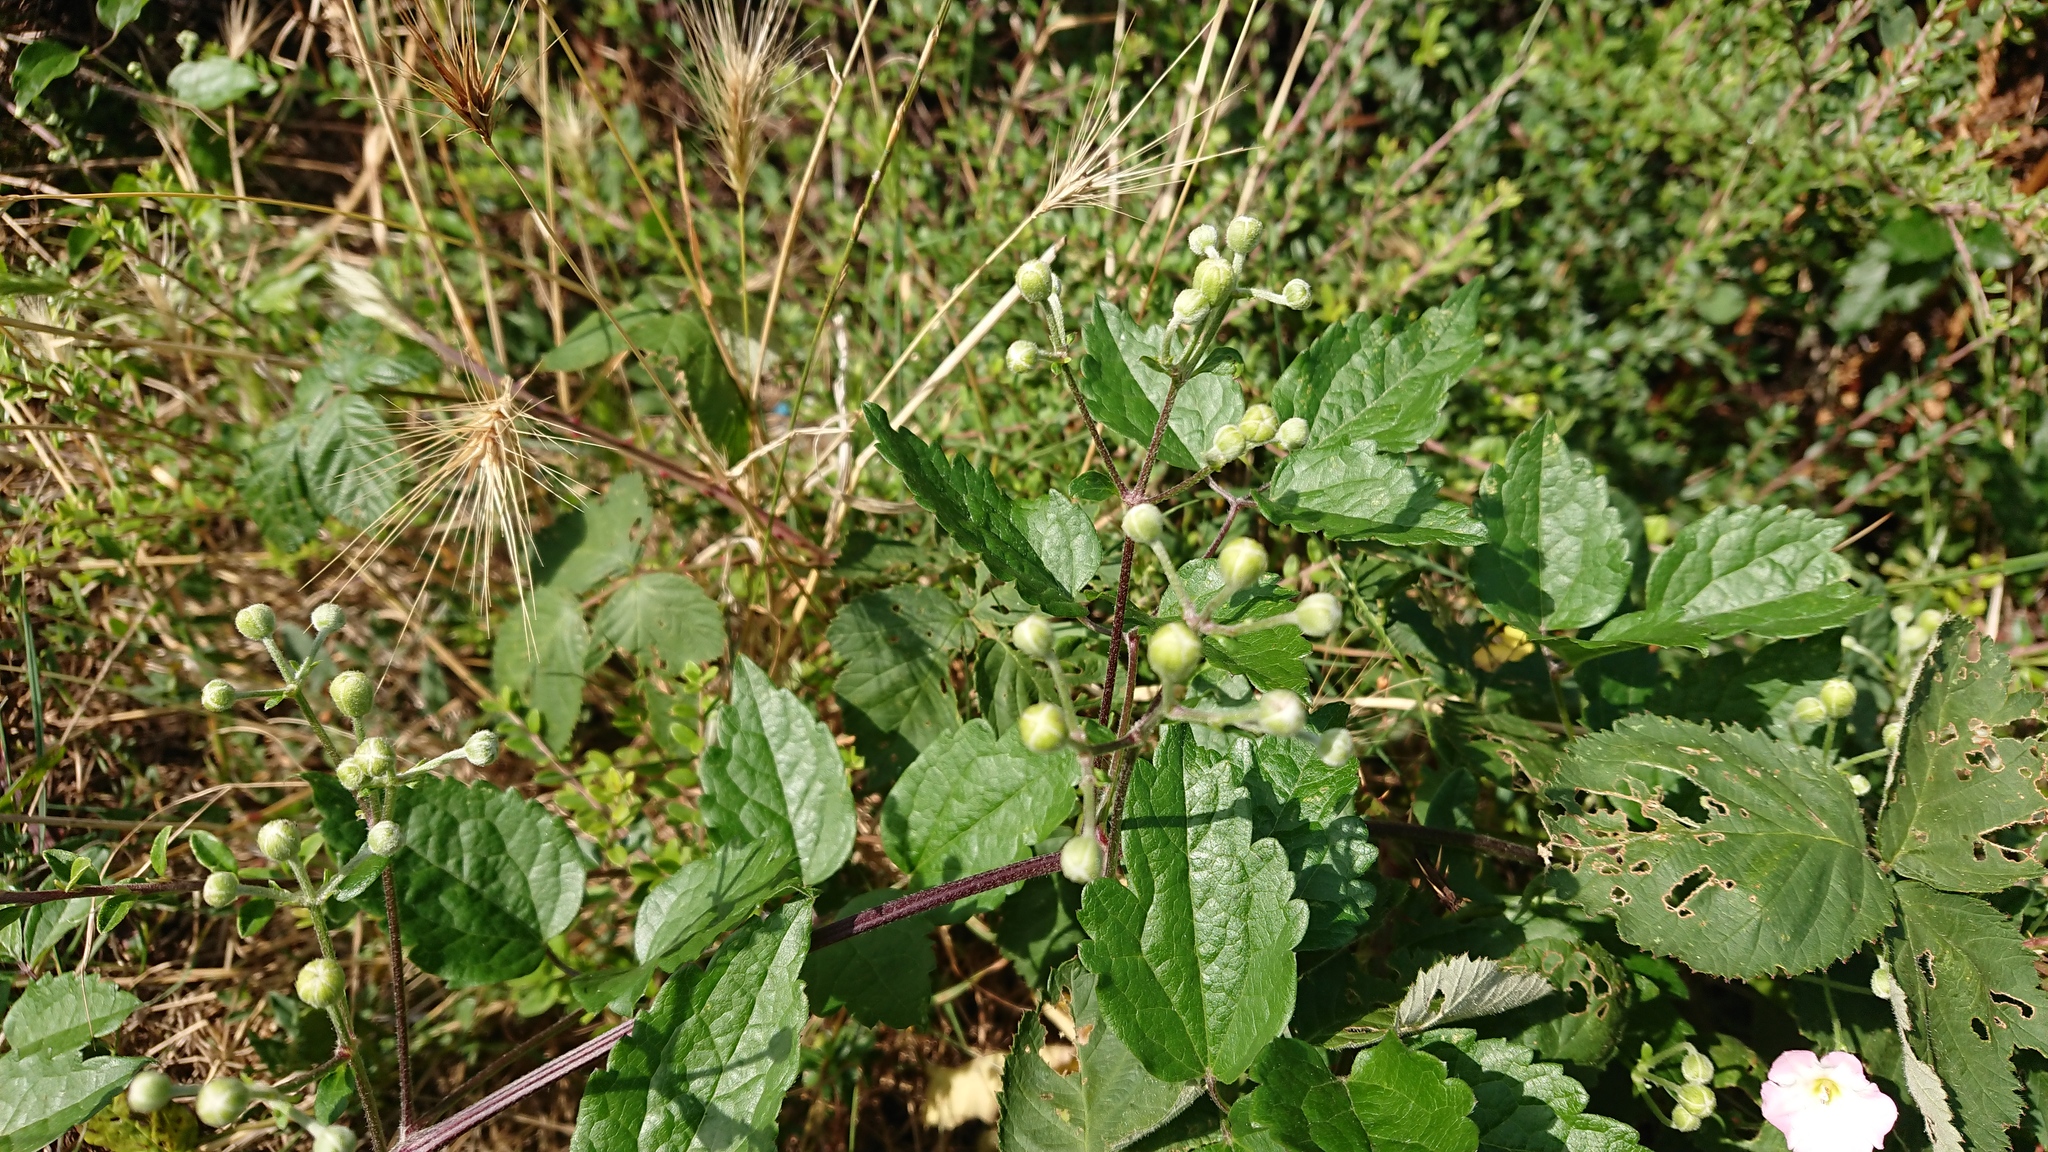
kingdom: Plantae
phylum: Tracheophyta
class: Magnoliopsida
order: Ranunculales
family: Ranunculaceae
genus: Clematis
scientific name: Clematis vitalba
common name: Evergreen clematis
